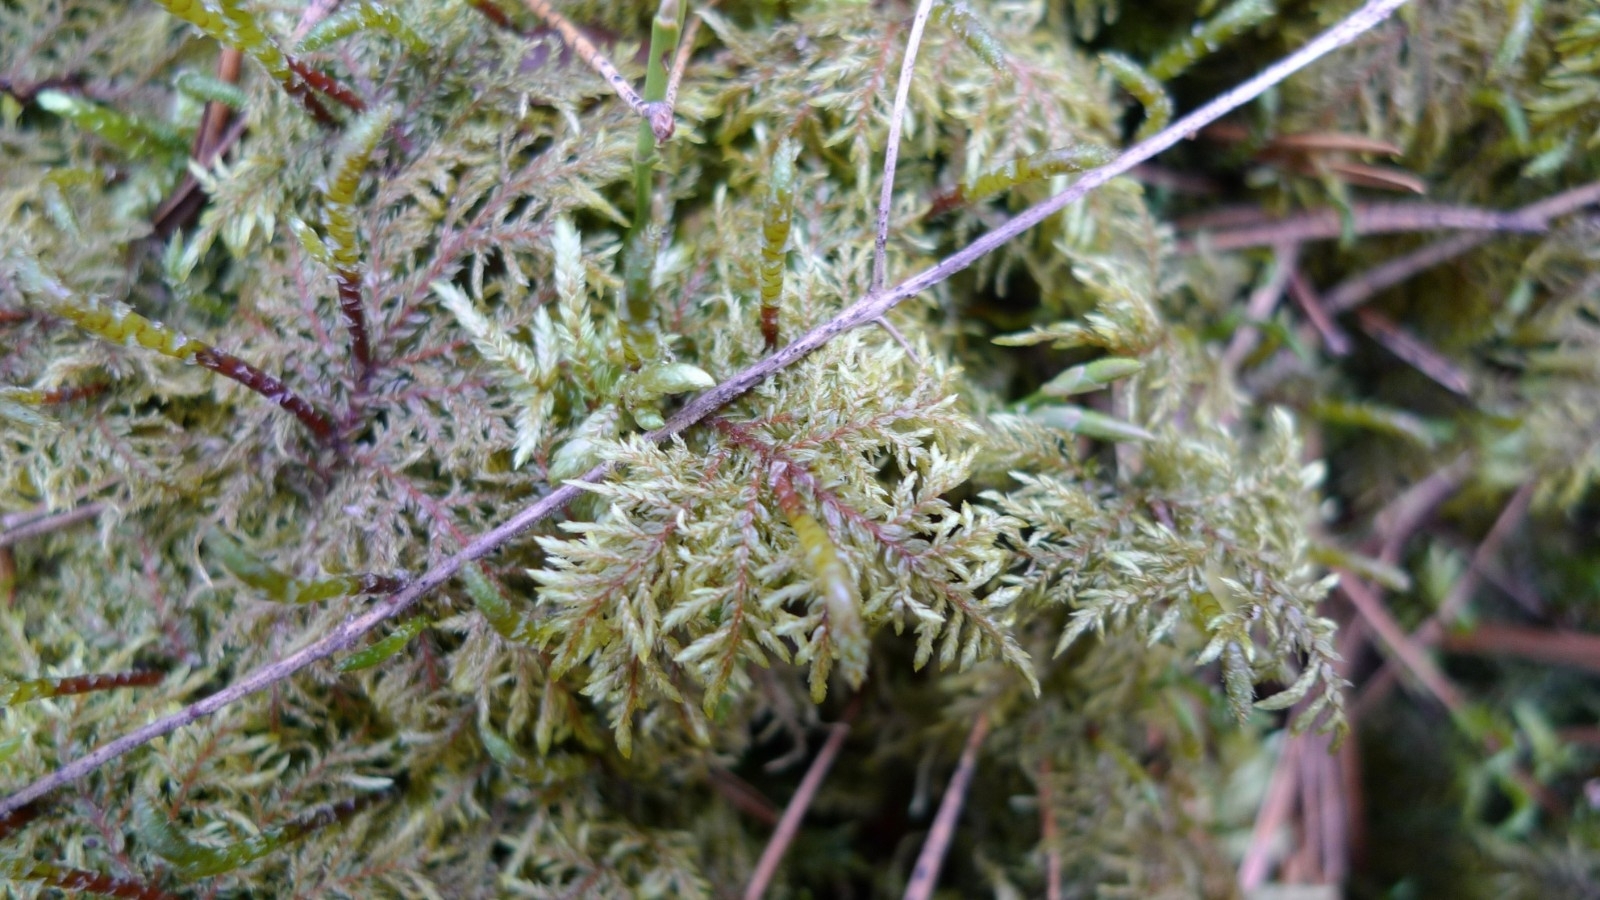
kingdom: Plantae
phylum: Bryophyta
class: Bryopsida
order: Hypnales
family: Hylocomiaceae
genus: Hylocomium
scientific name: Hylocomium splendens
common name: Stairstep moss
